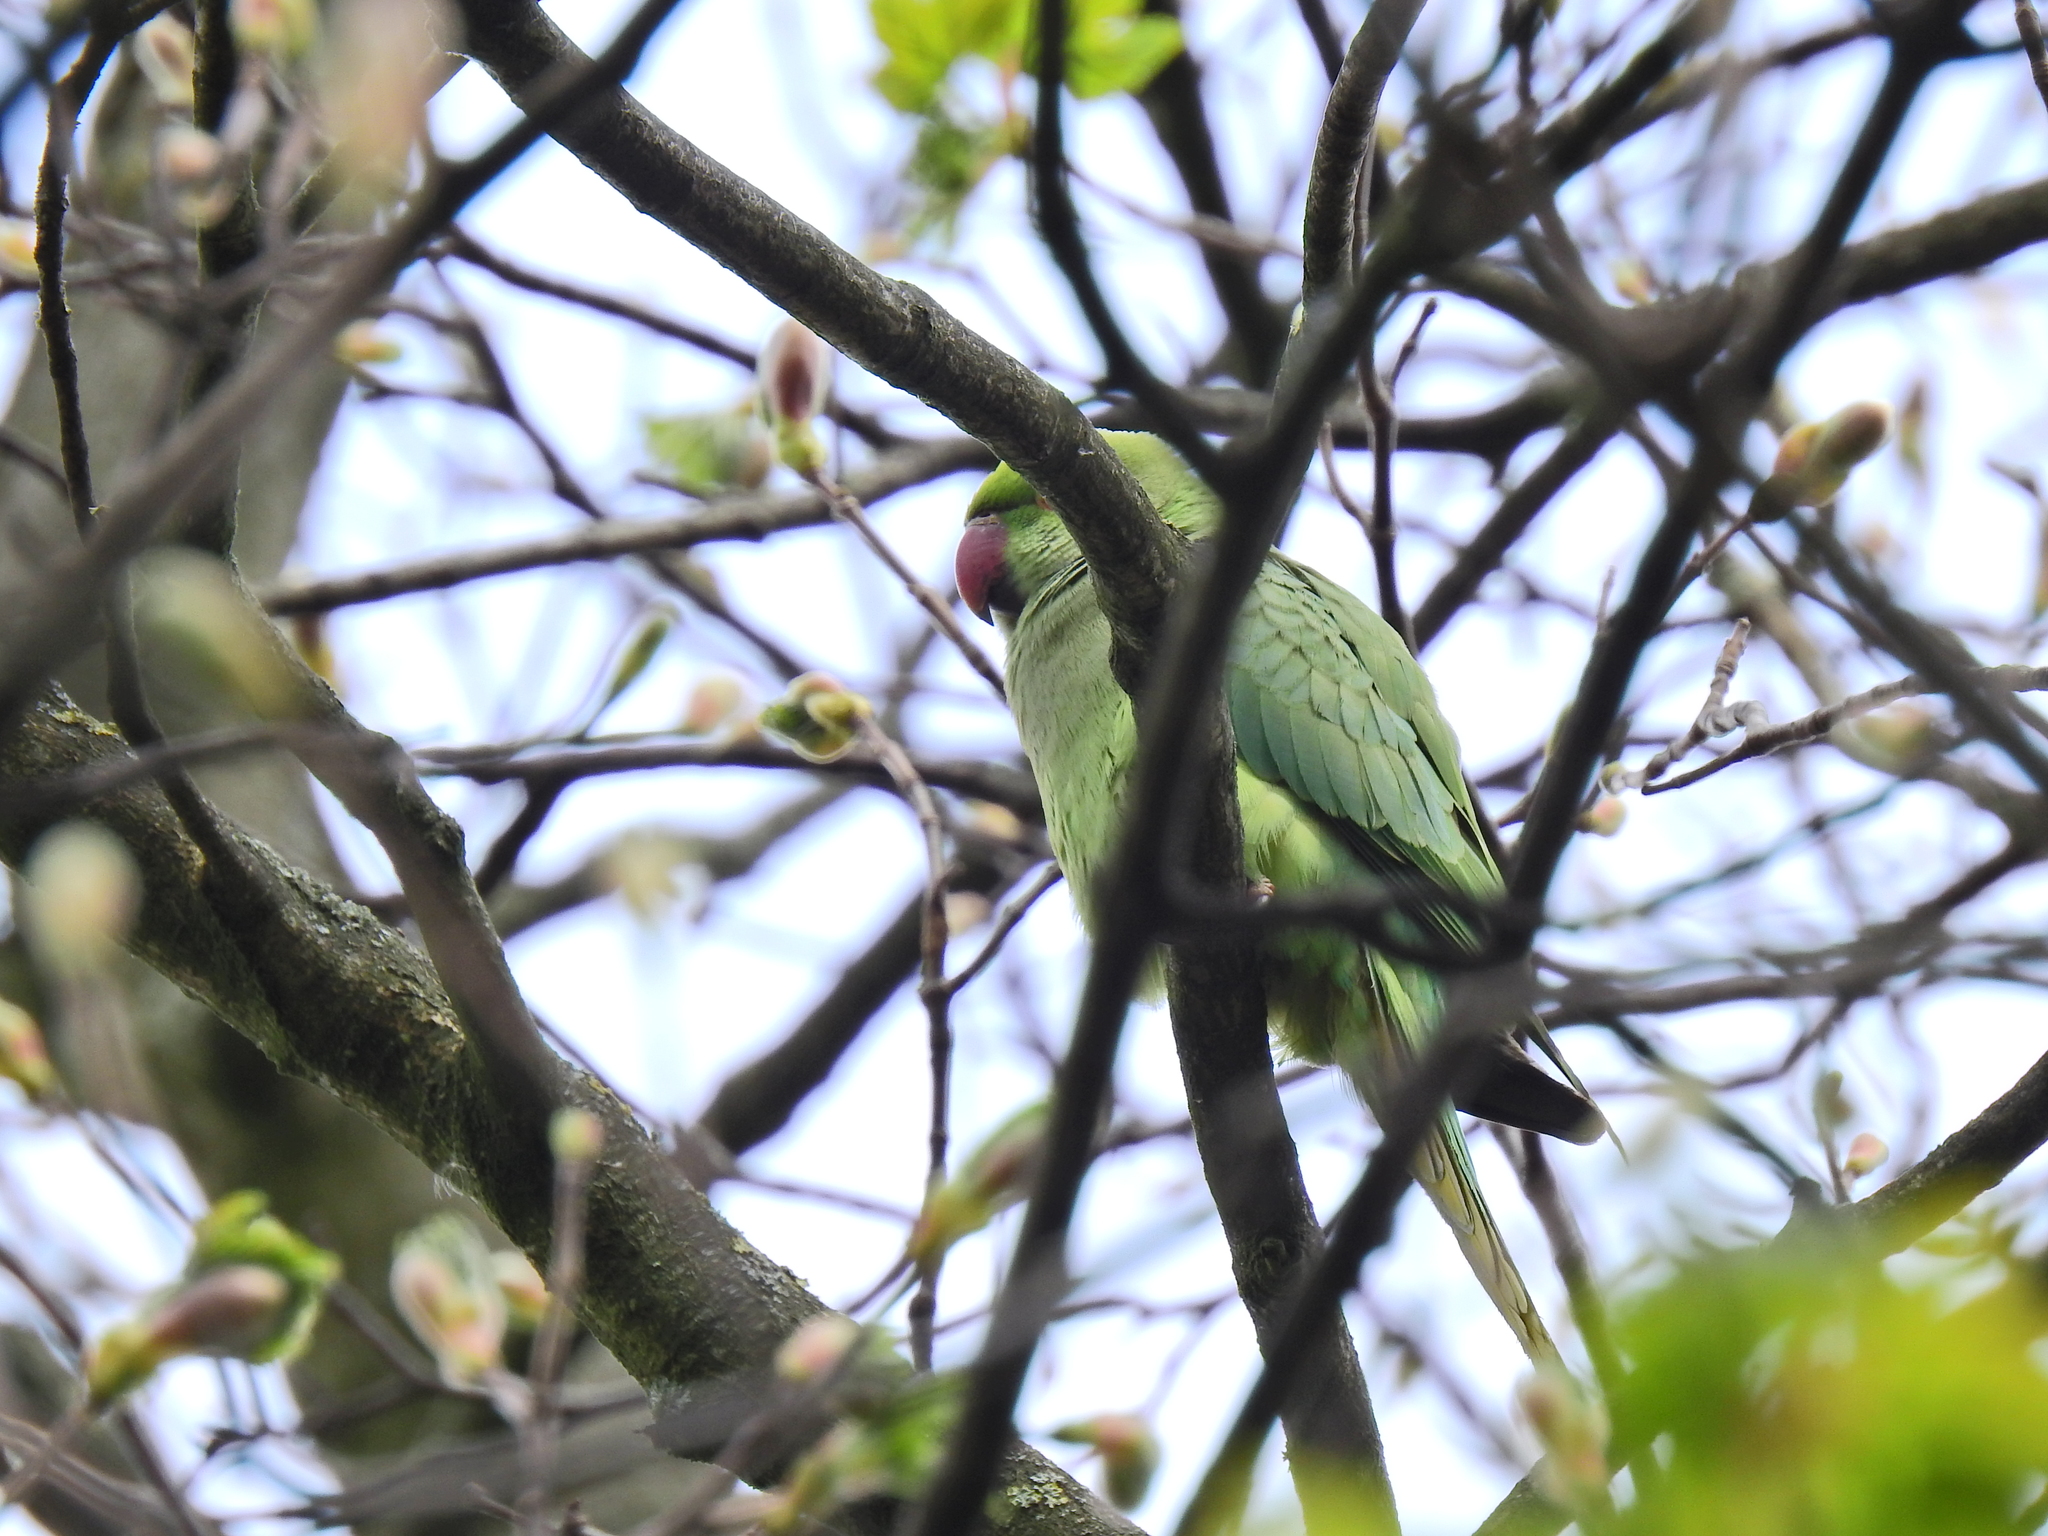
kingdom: Animalia
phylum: Chordata
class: Aves
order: Psittaciformes
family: Psittacidae
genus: Psittacula
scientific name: Psittacula krameri
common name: Rose-ringed parakeet
